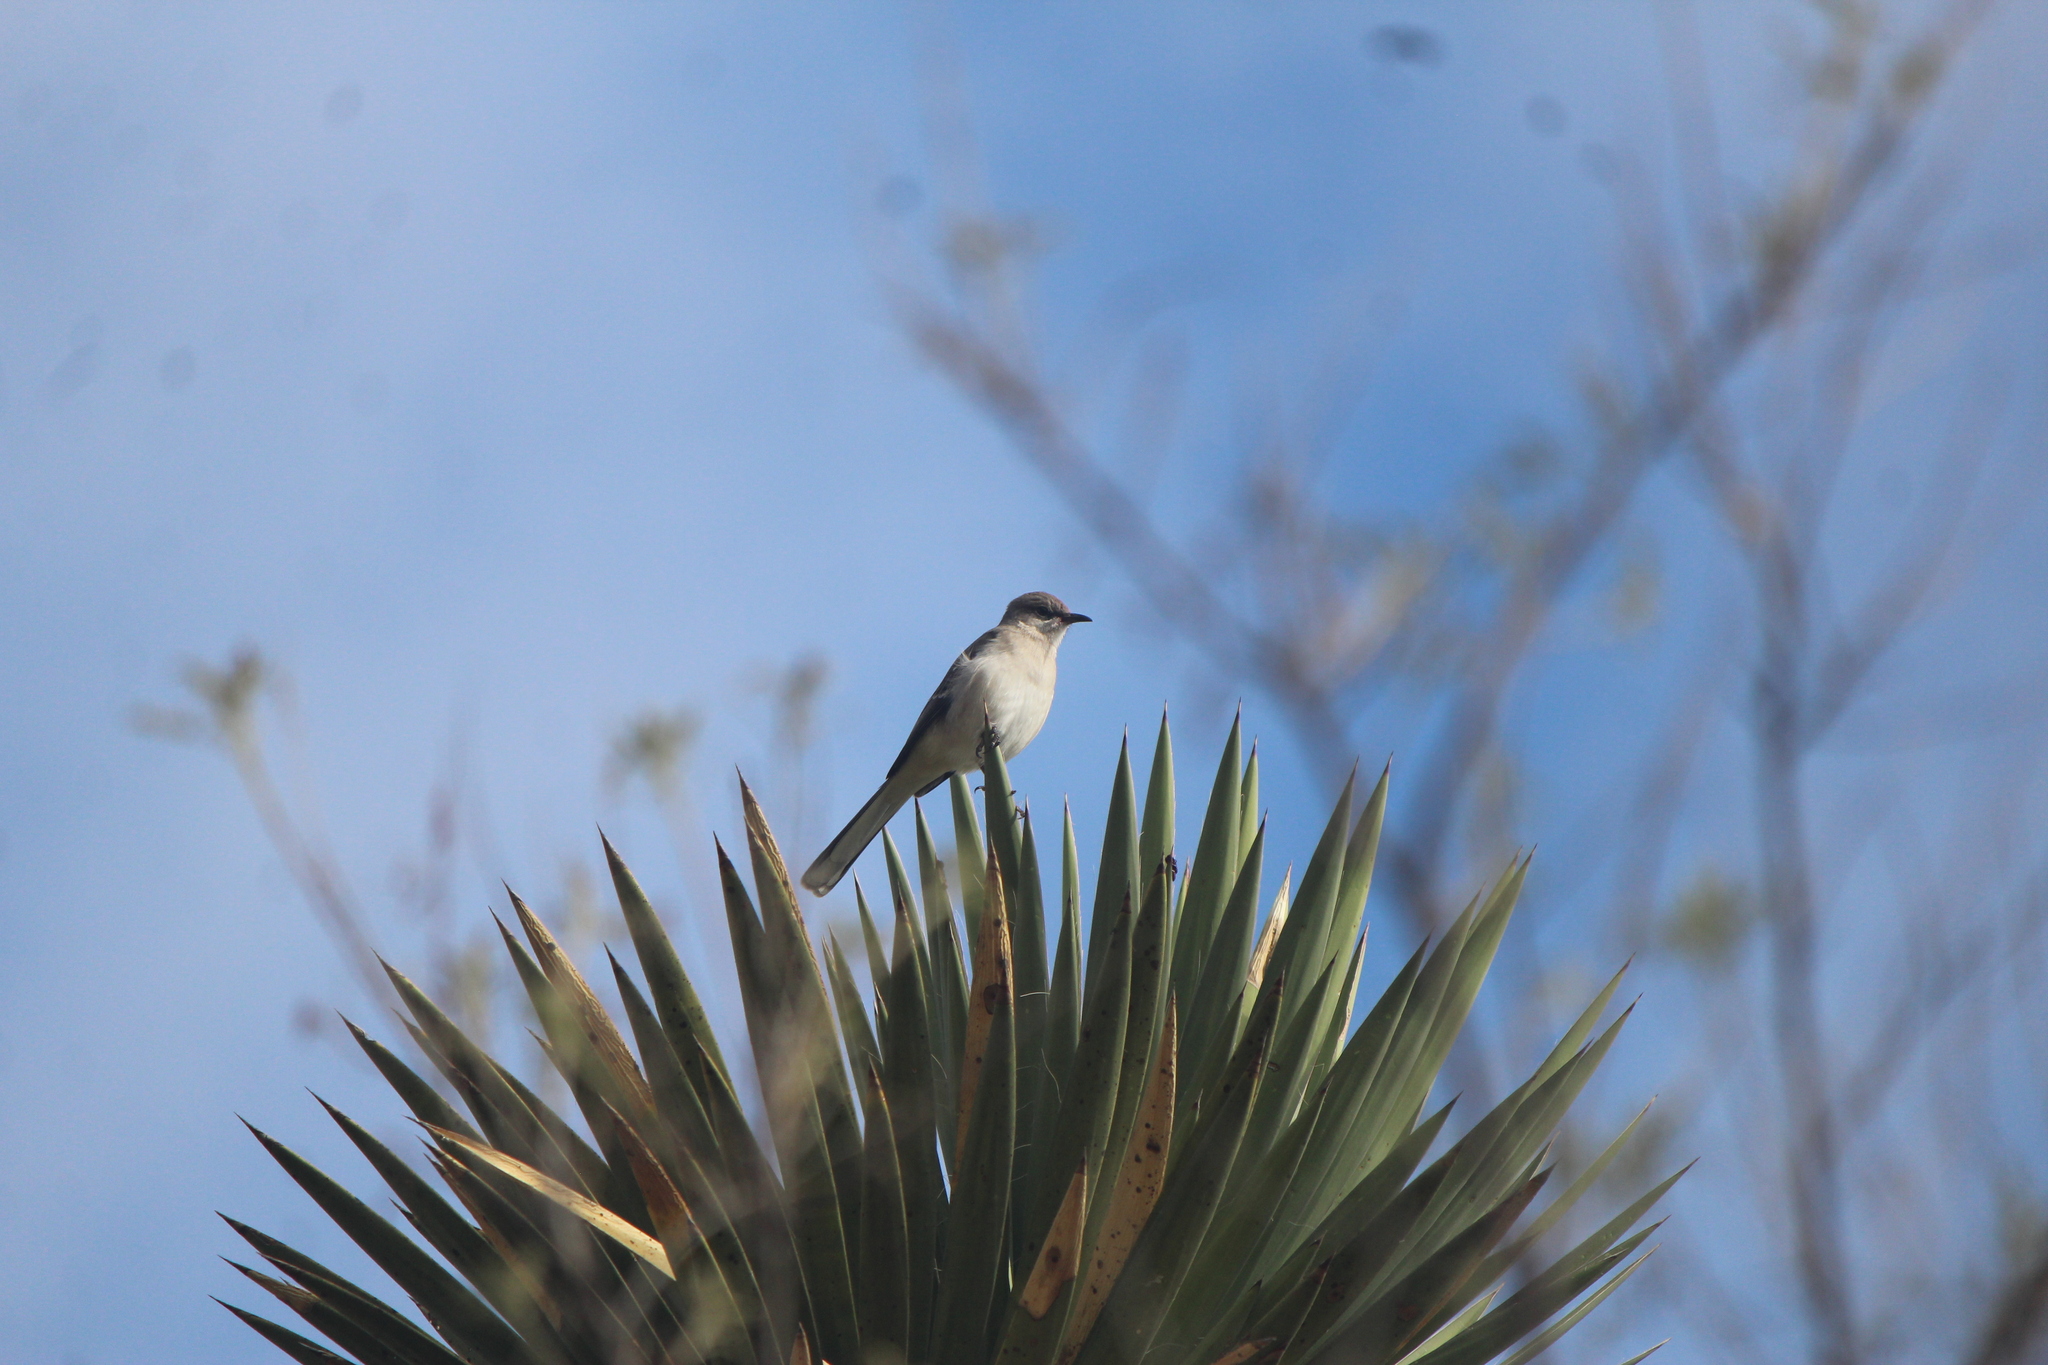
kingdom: Animalia
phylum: Chordata
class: Aves
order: Passeriformes
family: Mimidae
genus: Mimus
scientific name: Mimus polyglottos
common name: Northern mockingbird
